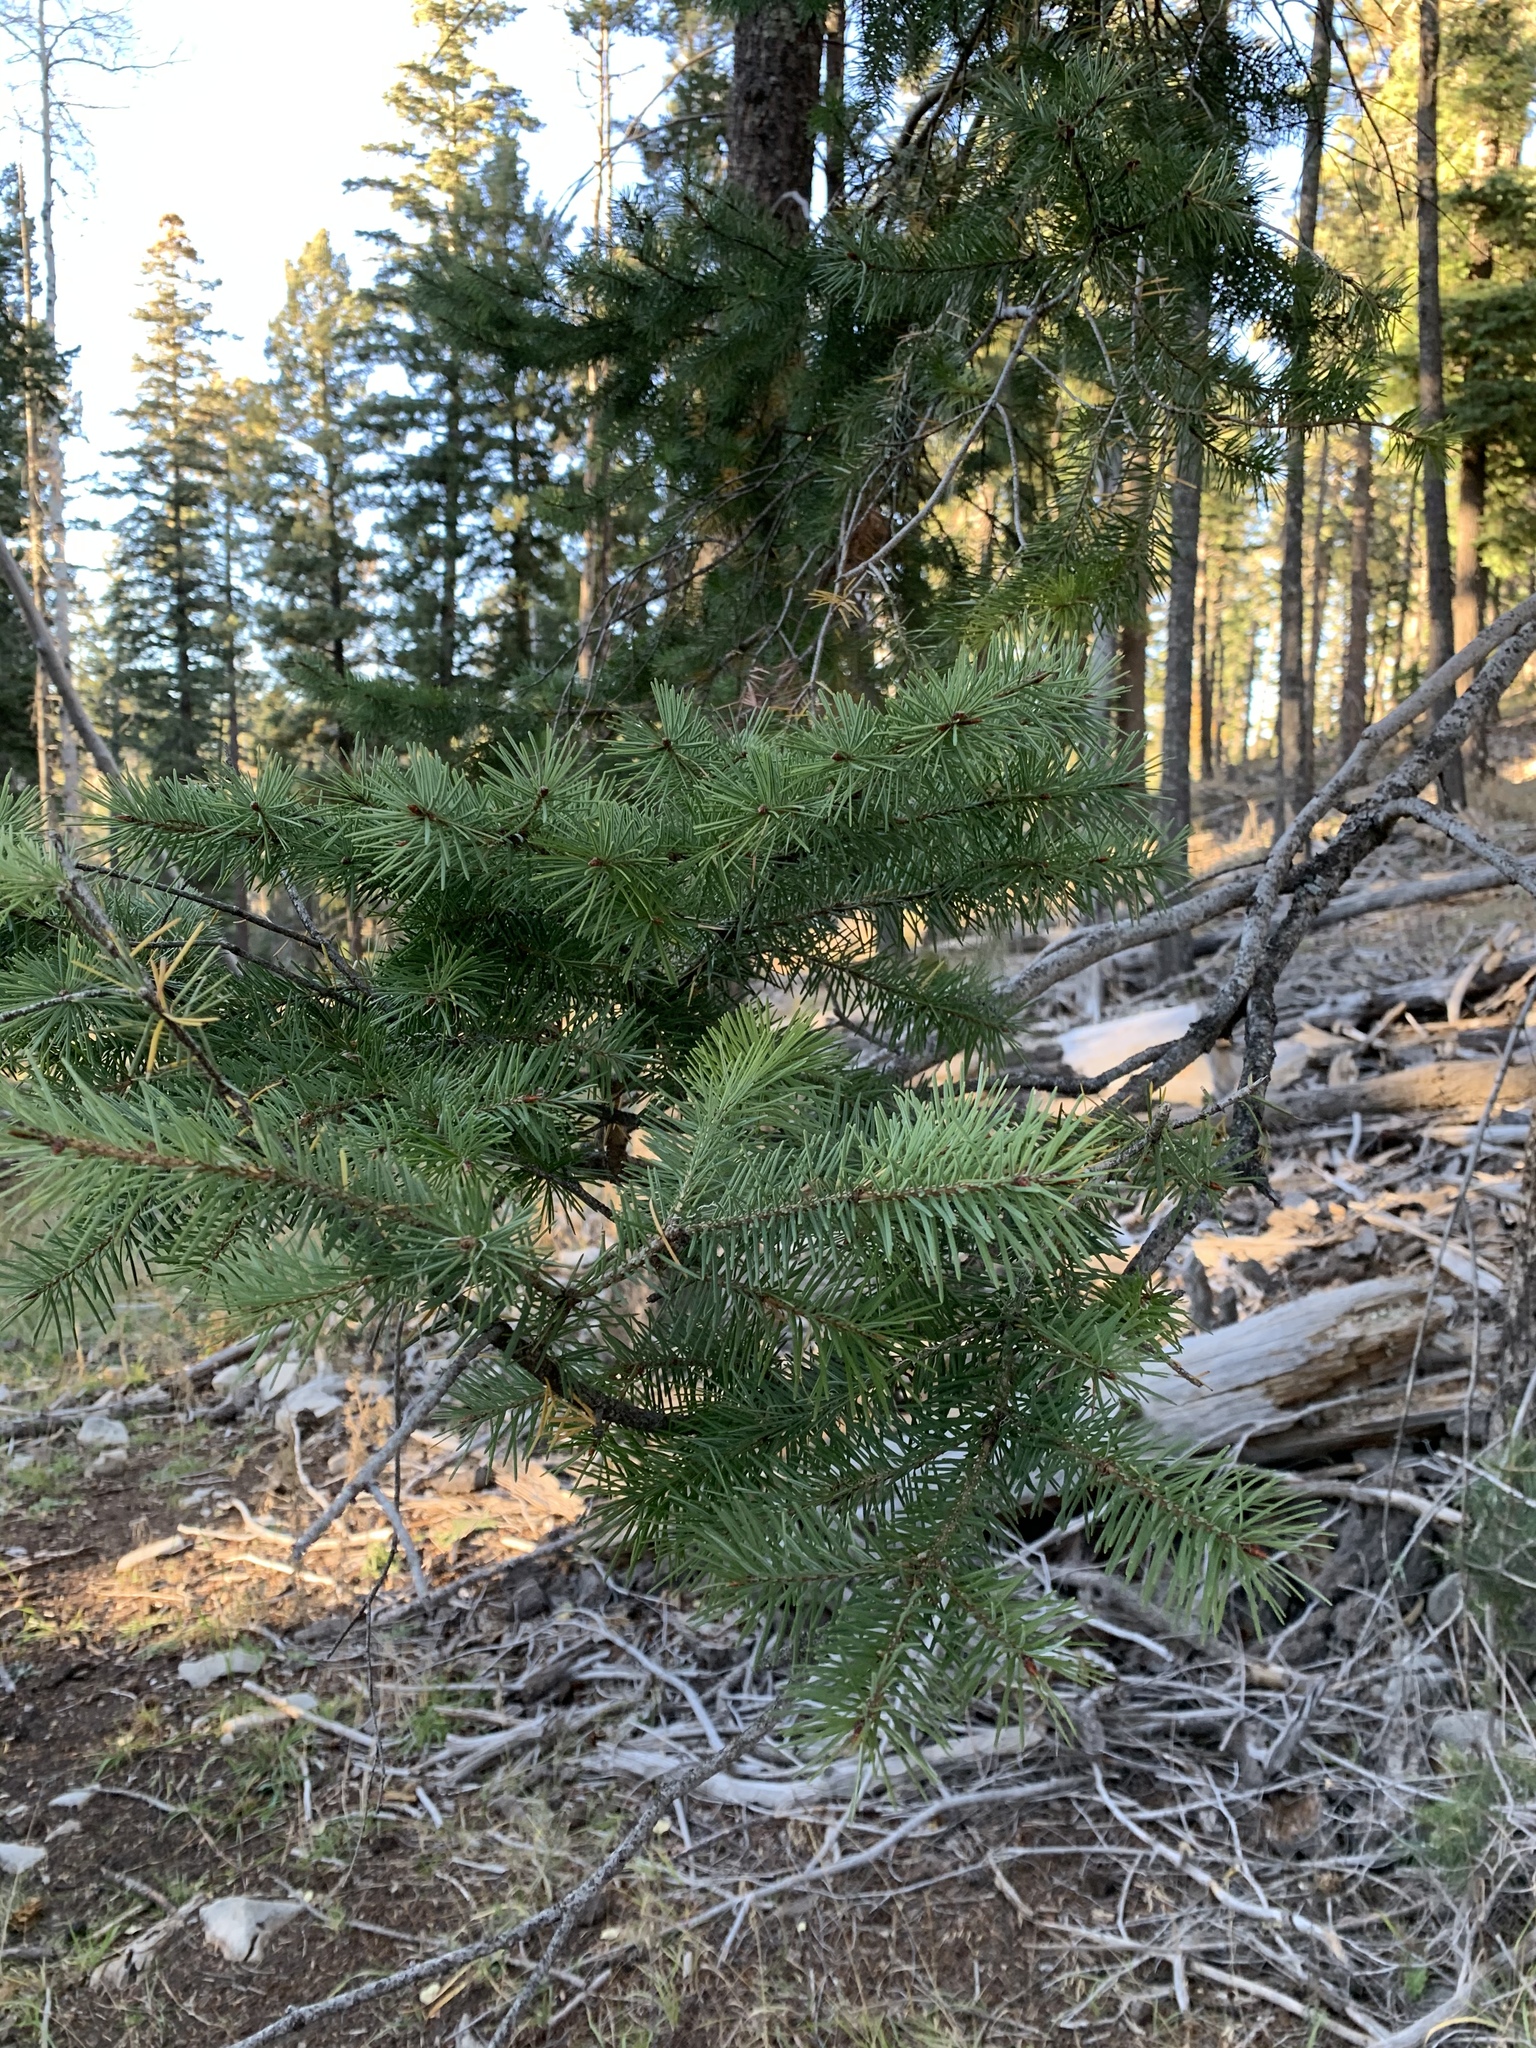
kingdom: Plantae
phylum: Tracheophyta
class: Pinopsida
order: Pinales
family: Pinaceae
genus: Pseudotsuga
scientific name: Pseudotsuga menziesii
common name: Douglas fir
